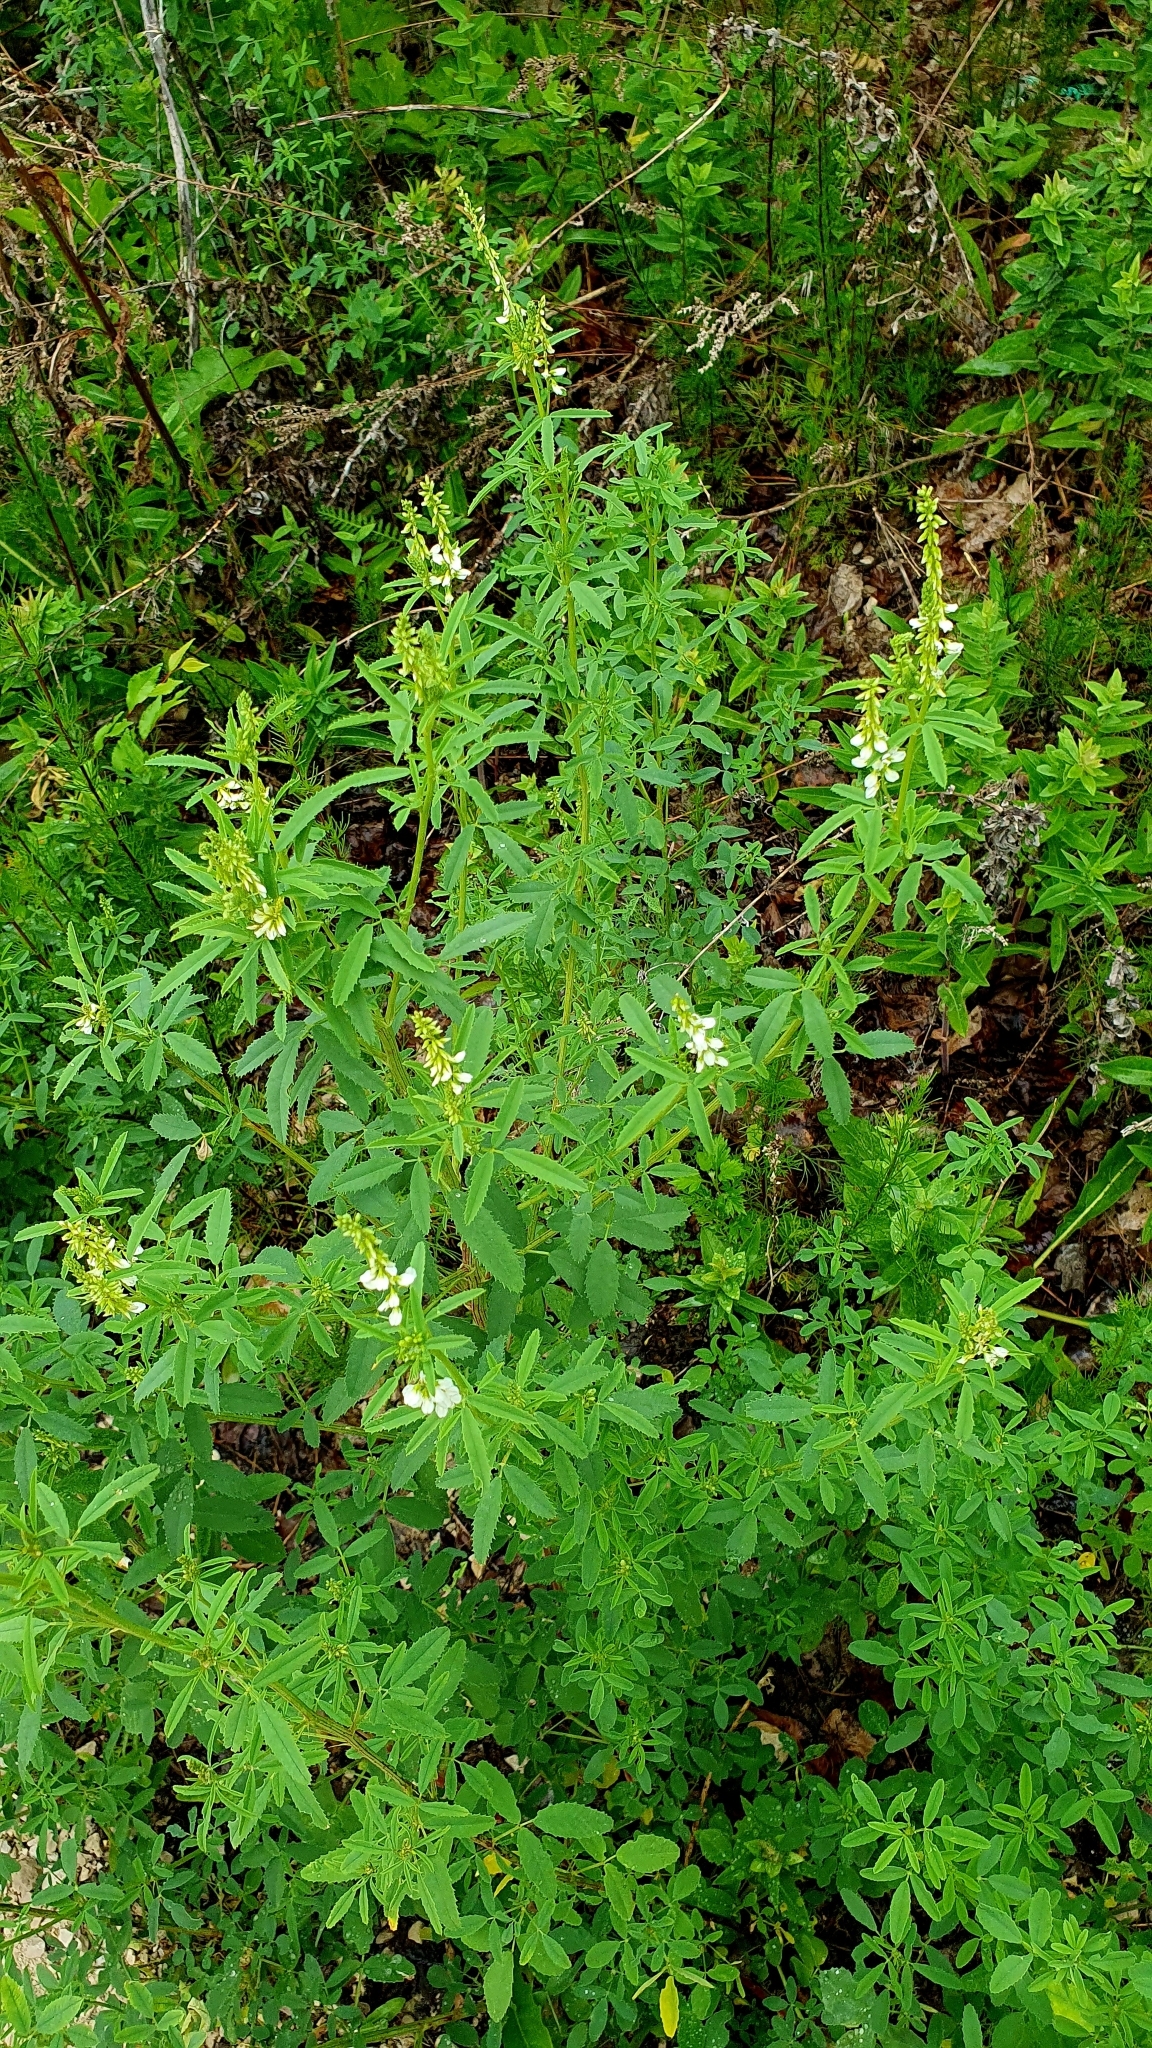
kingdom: Plantae
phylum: Tracheophyta
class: Magnoliopsida
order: Fabales
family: Fabaceae
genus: Melilotus
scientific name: Melilotus albus
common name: White melilot
